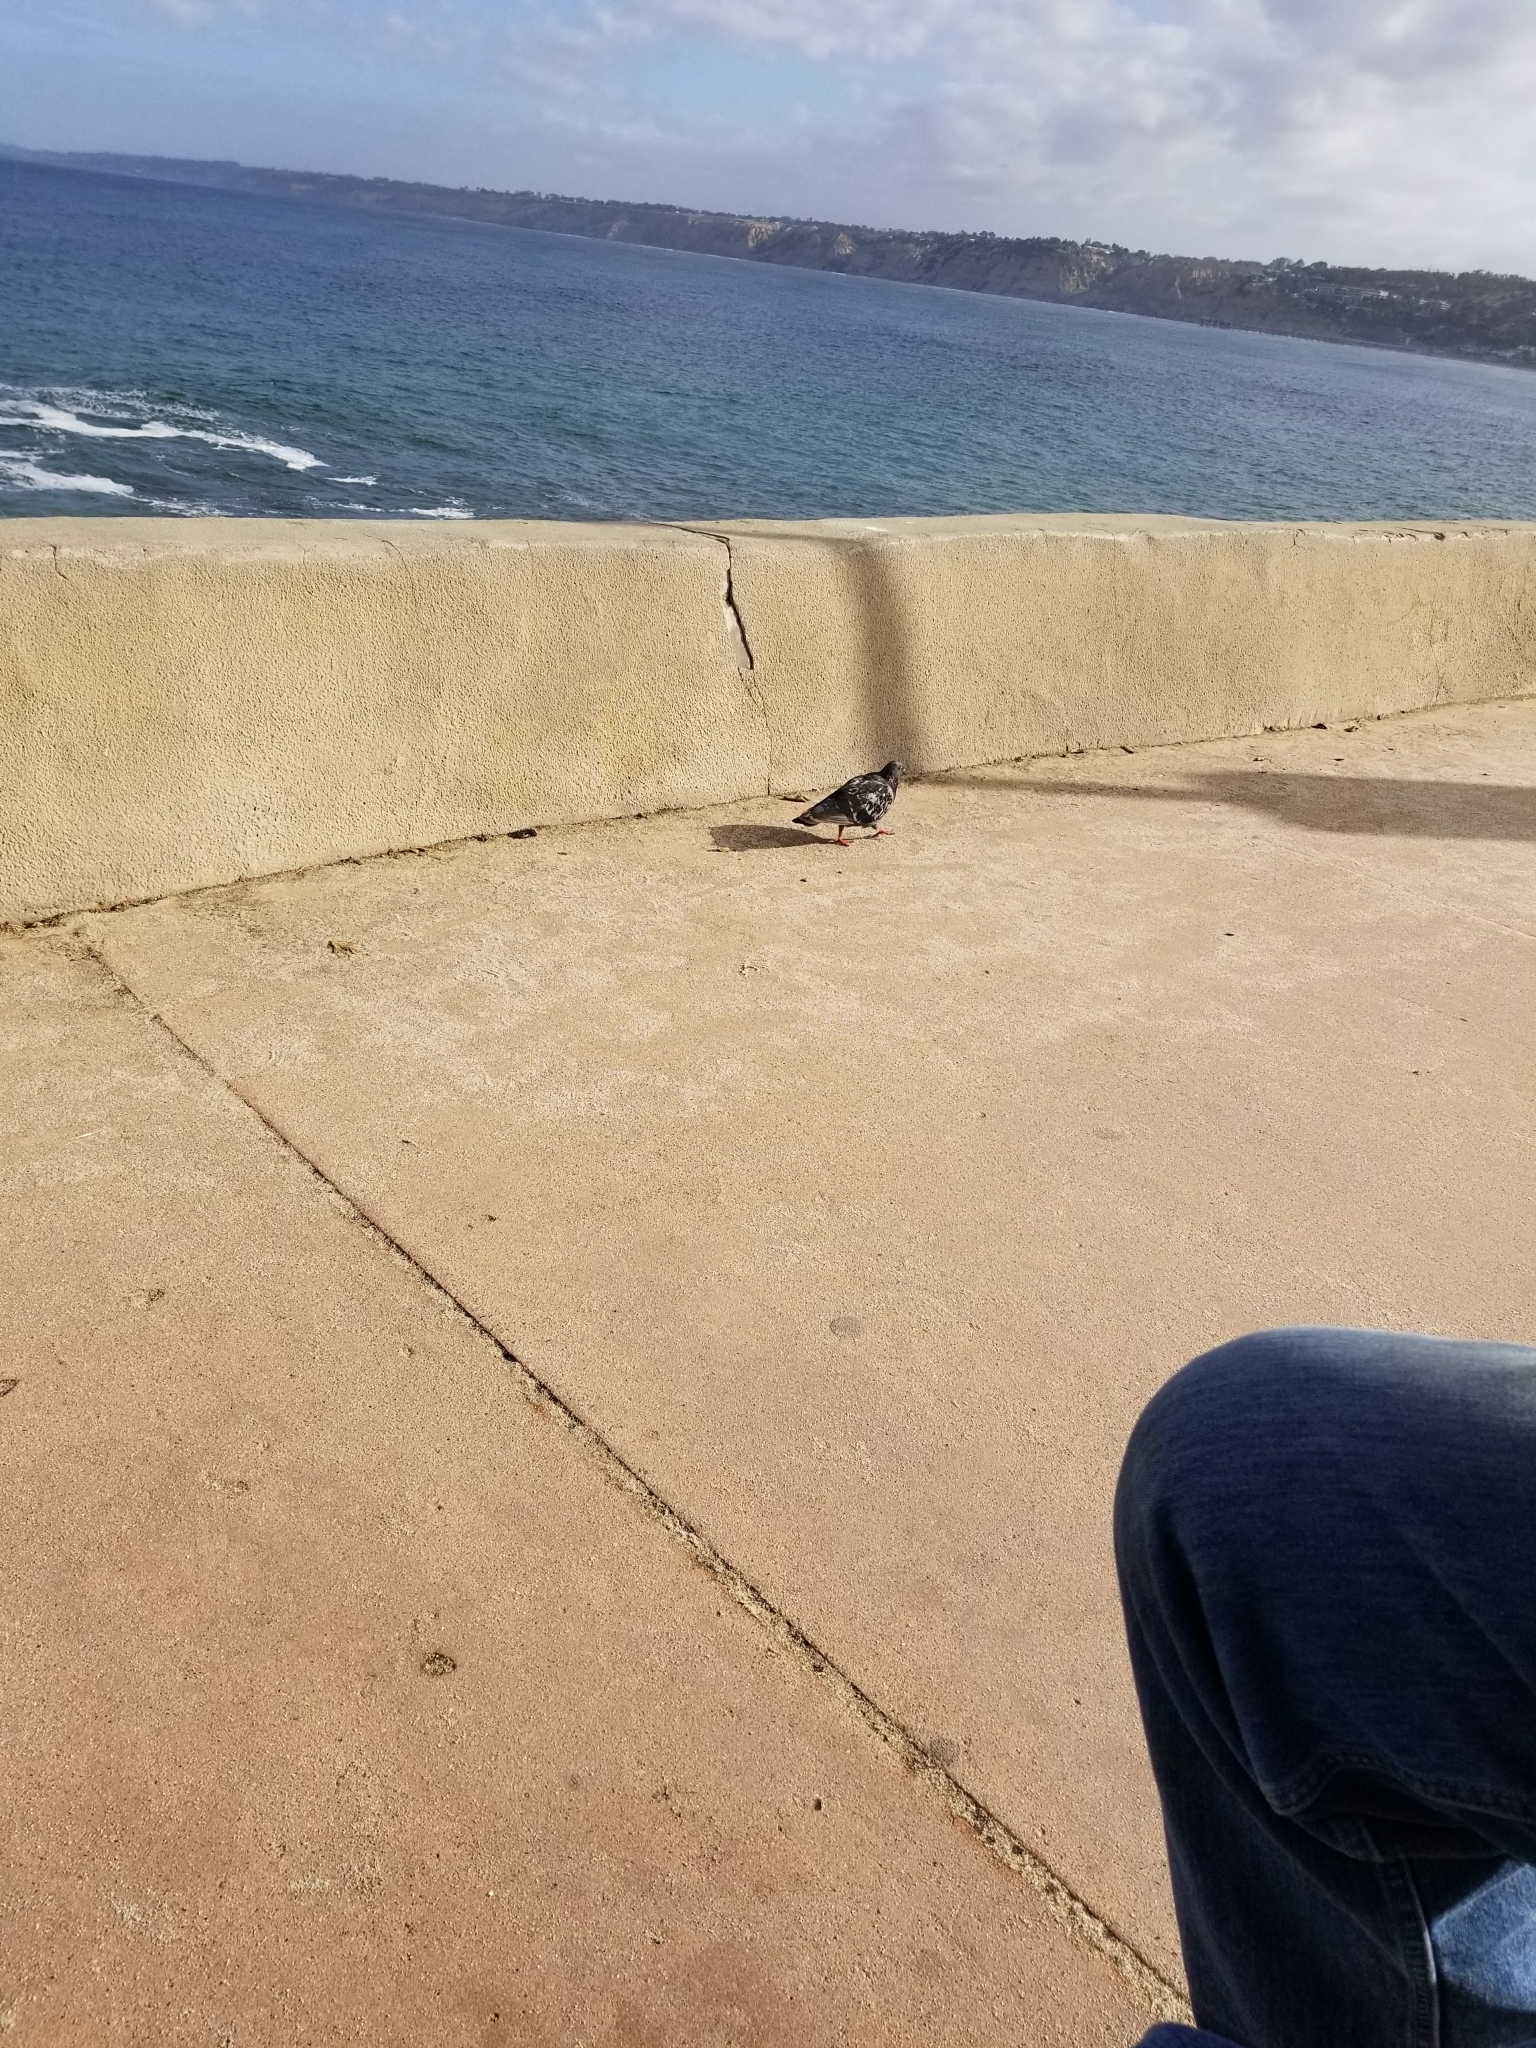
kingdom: Animalia
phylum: Chordata
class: Aves
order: Columbiformes
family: Columbidae
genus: Columba
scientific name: Columba livia
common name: Rock pigeon
